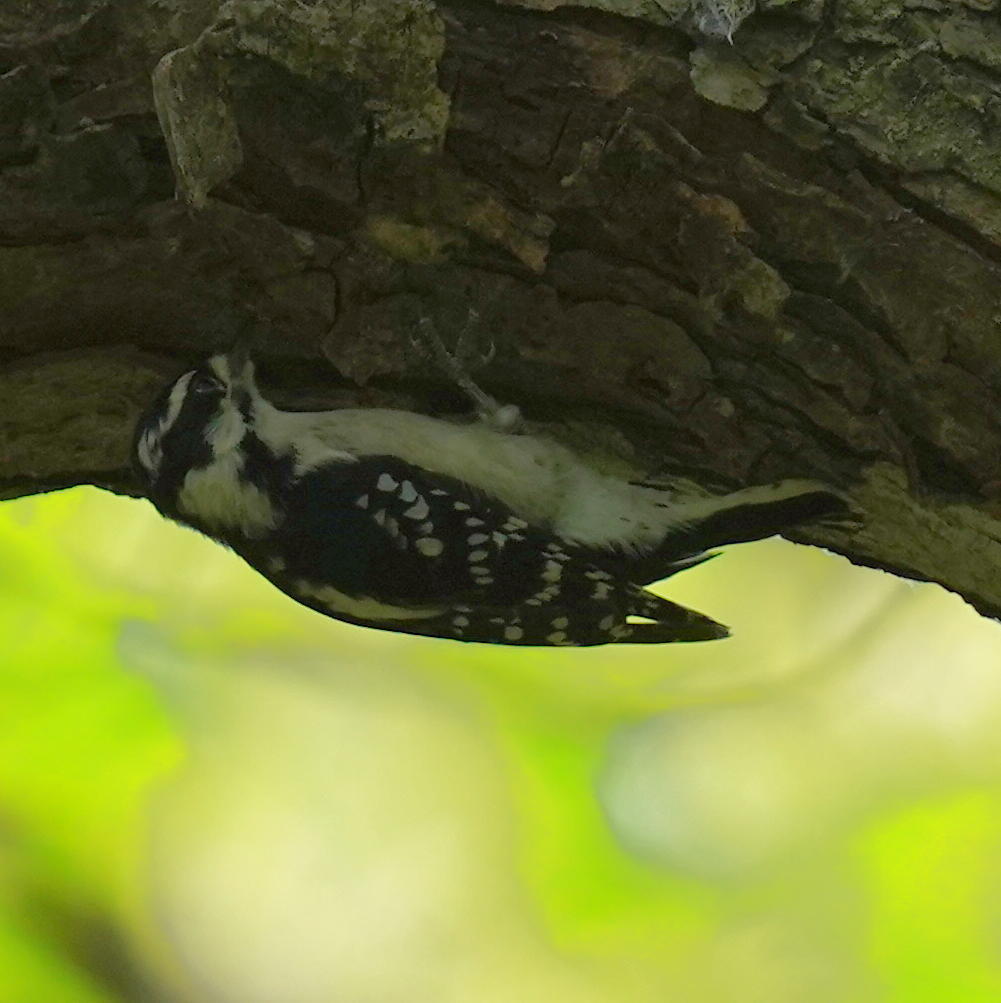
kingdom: Animalia
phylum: Chordata
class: Aves
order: Piciformes
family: Picidae
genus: Dryobates
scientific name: Dryobates pubescens
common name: Downy woodpecker
